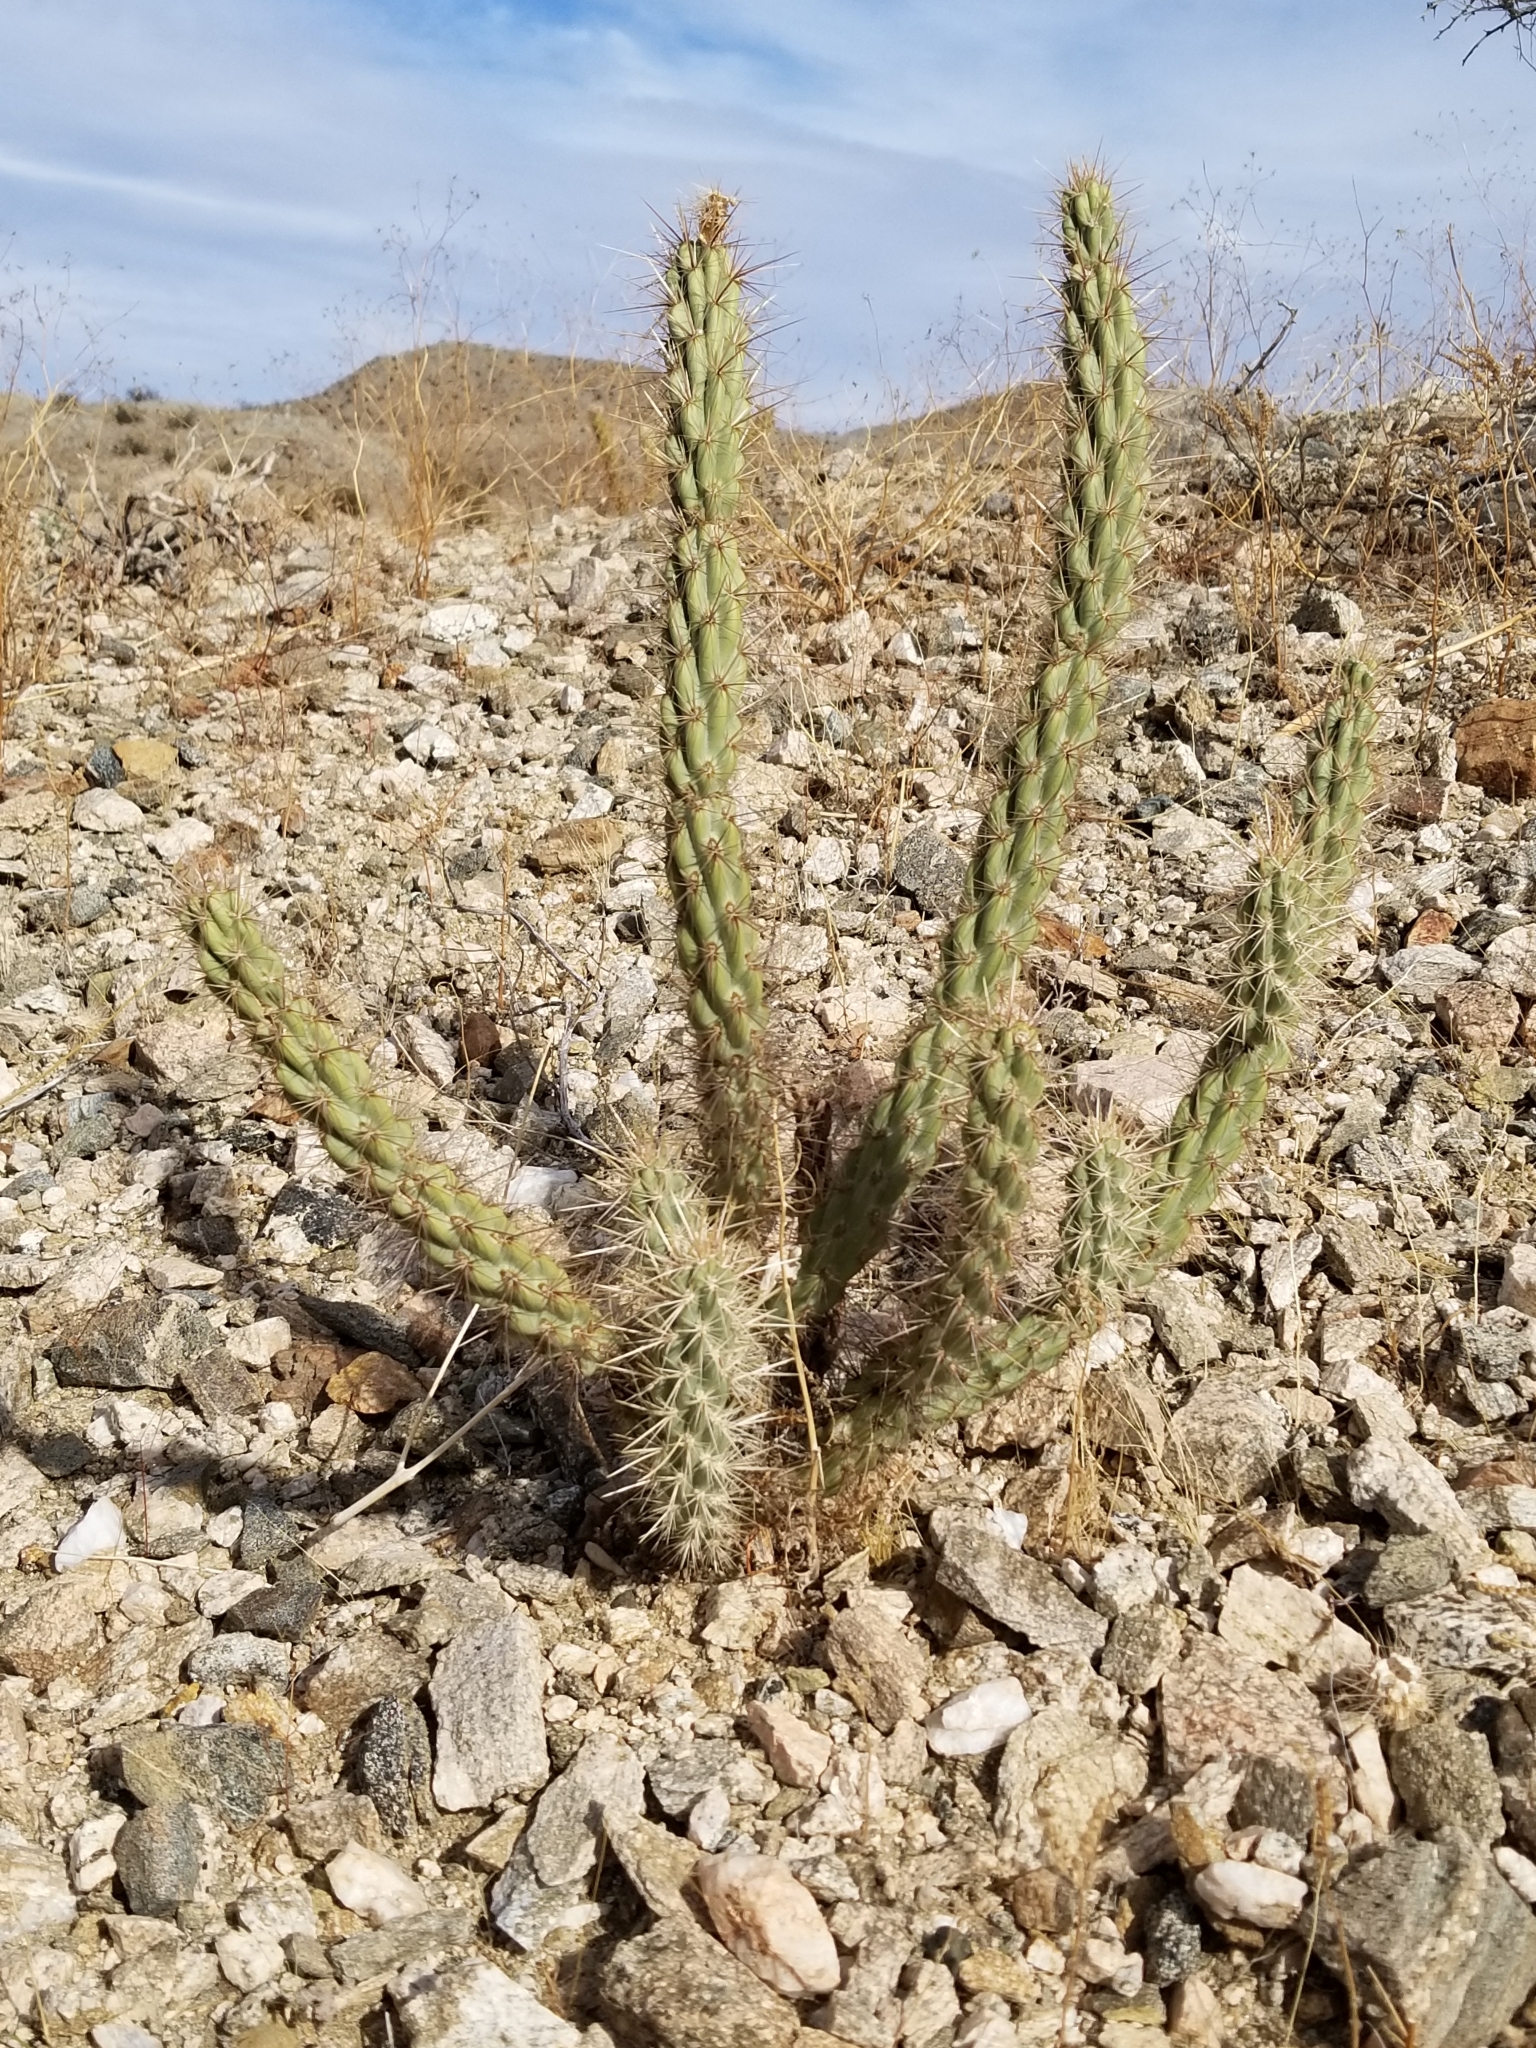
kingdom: Plantae
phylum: Tracheophyta
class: Magnoliopsida
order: Caryophyllales
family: Cactaceae
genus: Cylindropuntia
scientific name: Cylindropuntia ganderi
